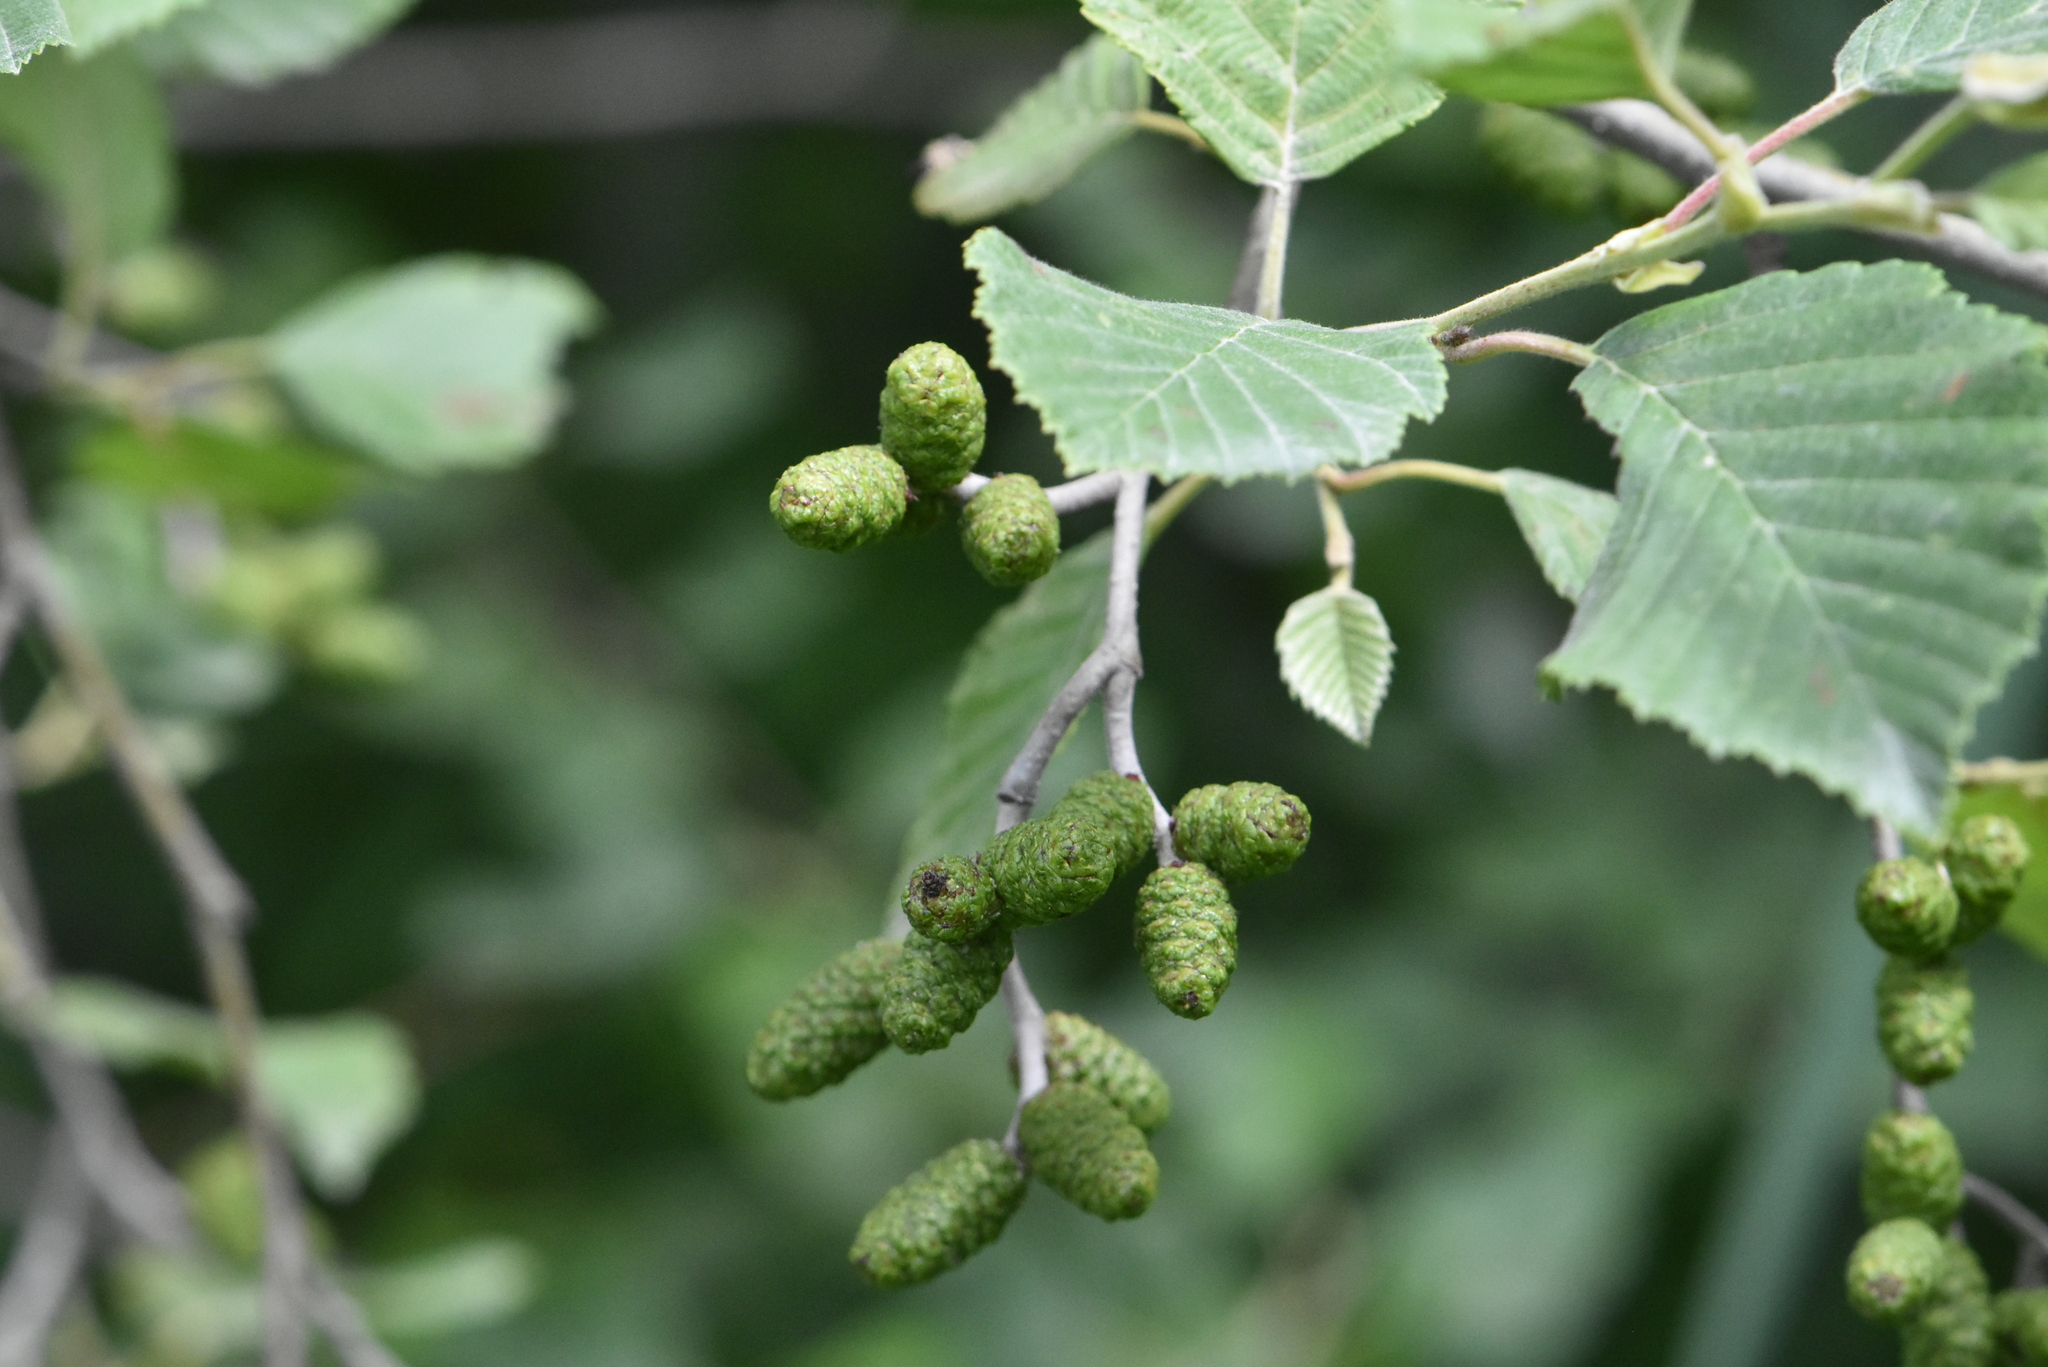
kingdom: Plantae
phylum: Tracheophyta
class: Magnoliopsida
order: Fagales
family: Betulaceae
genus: Alnus
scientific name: Alnus incana
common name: Grey alder
